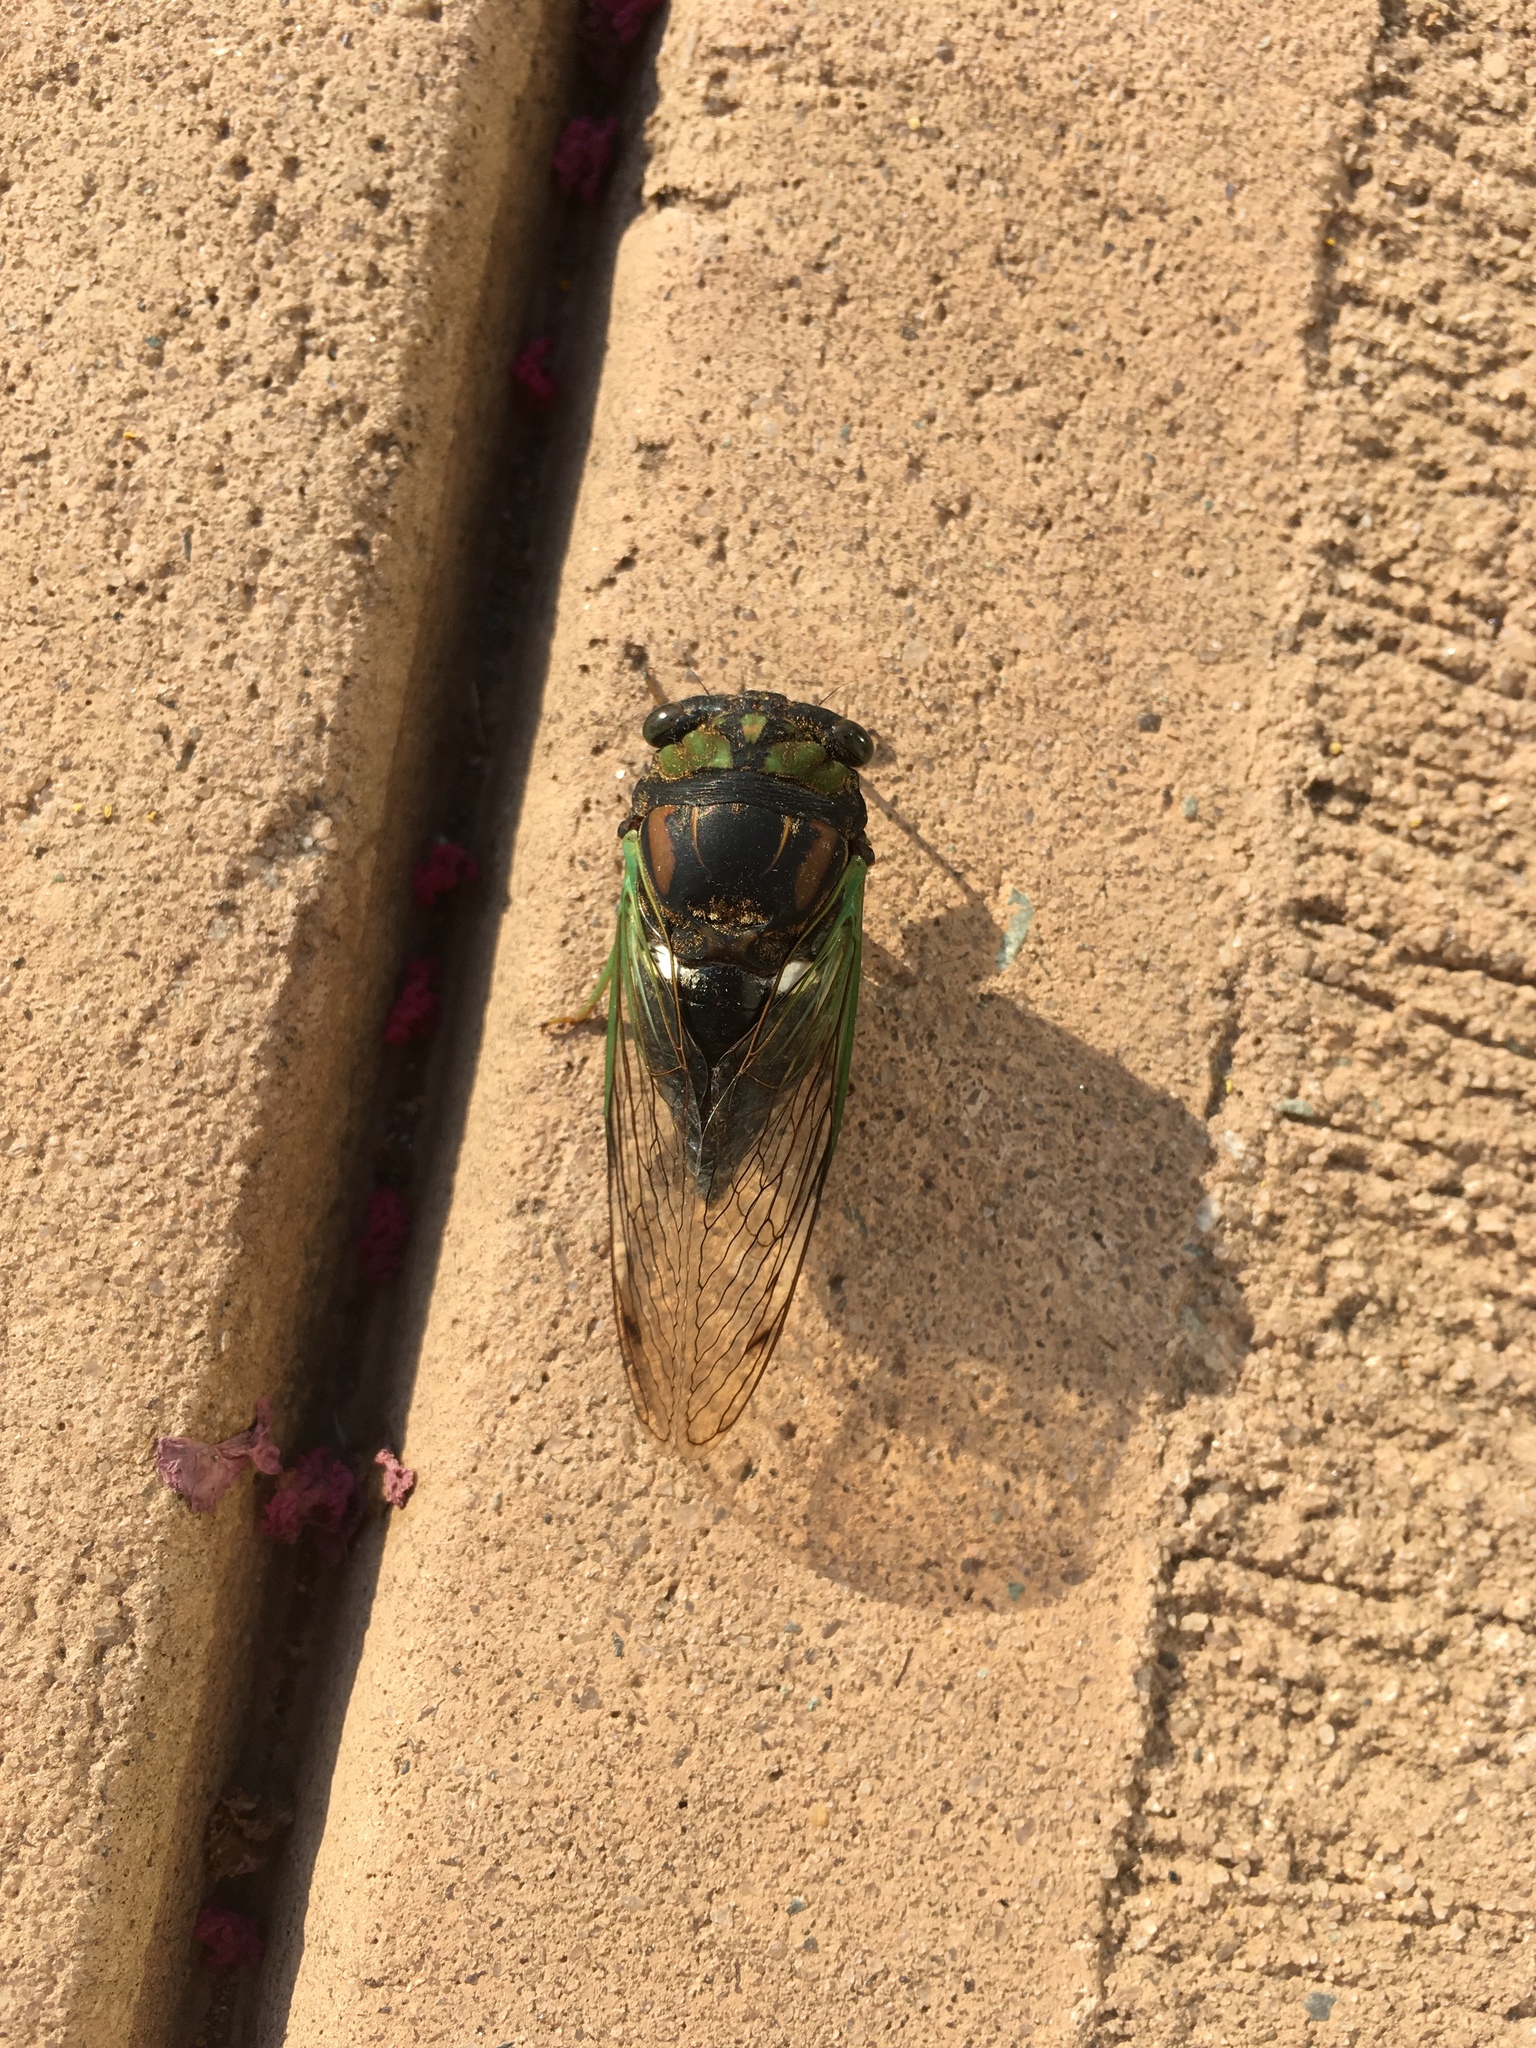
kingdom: Animalia
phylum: Arthropoda
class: Insecta
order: Hemiptera
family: Cicadidae
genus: Neotibicen
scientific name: Neotibicen tibicen
